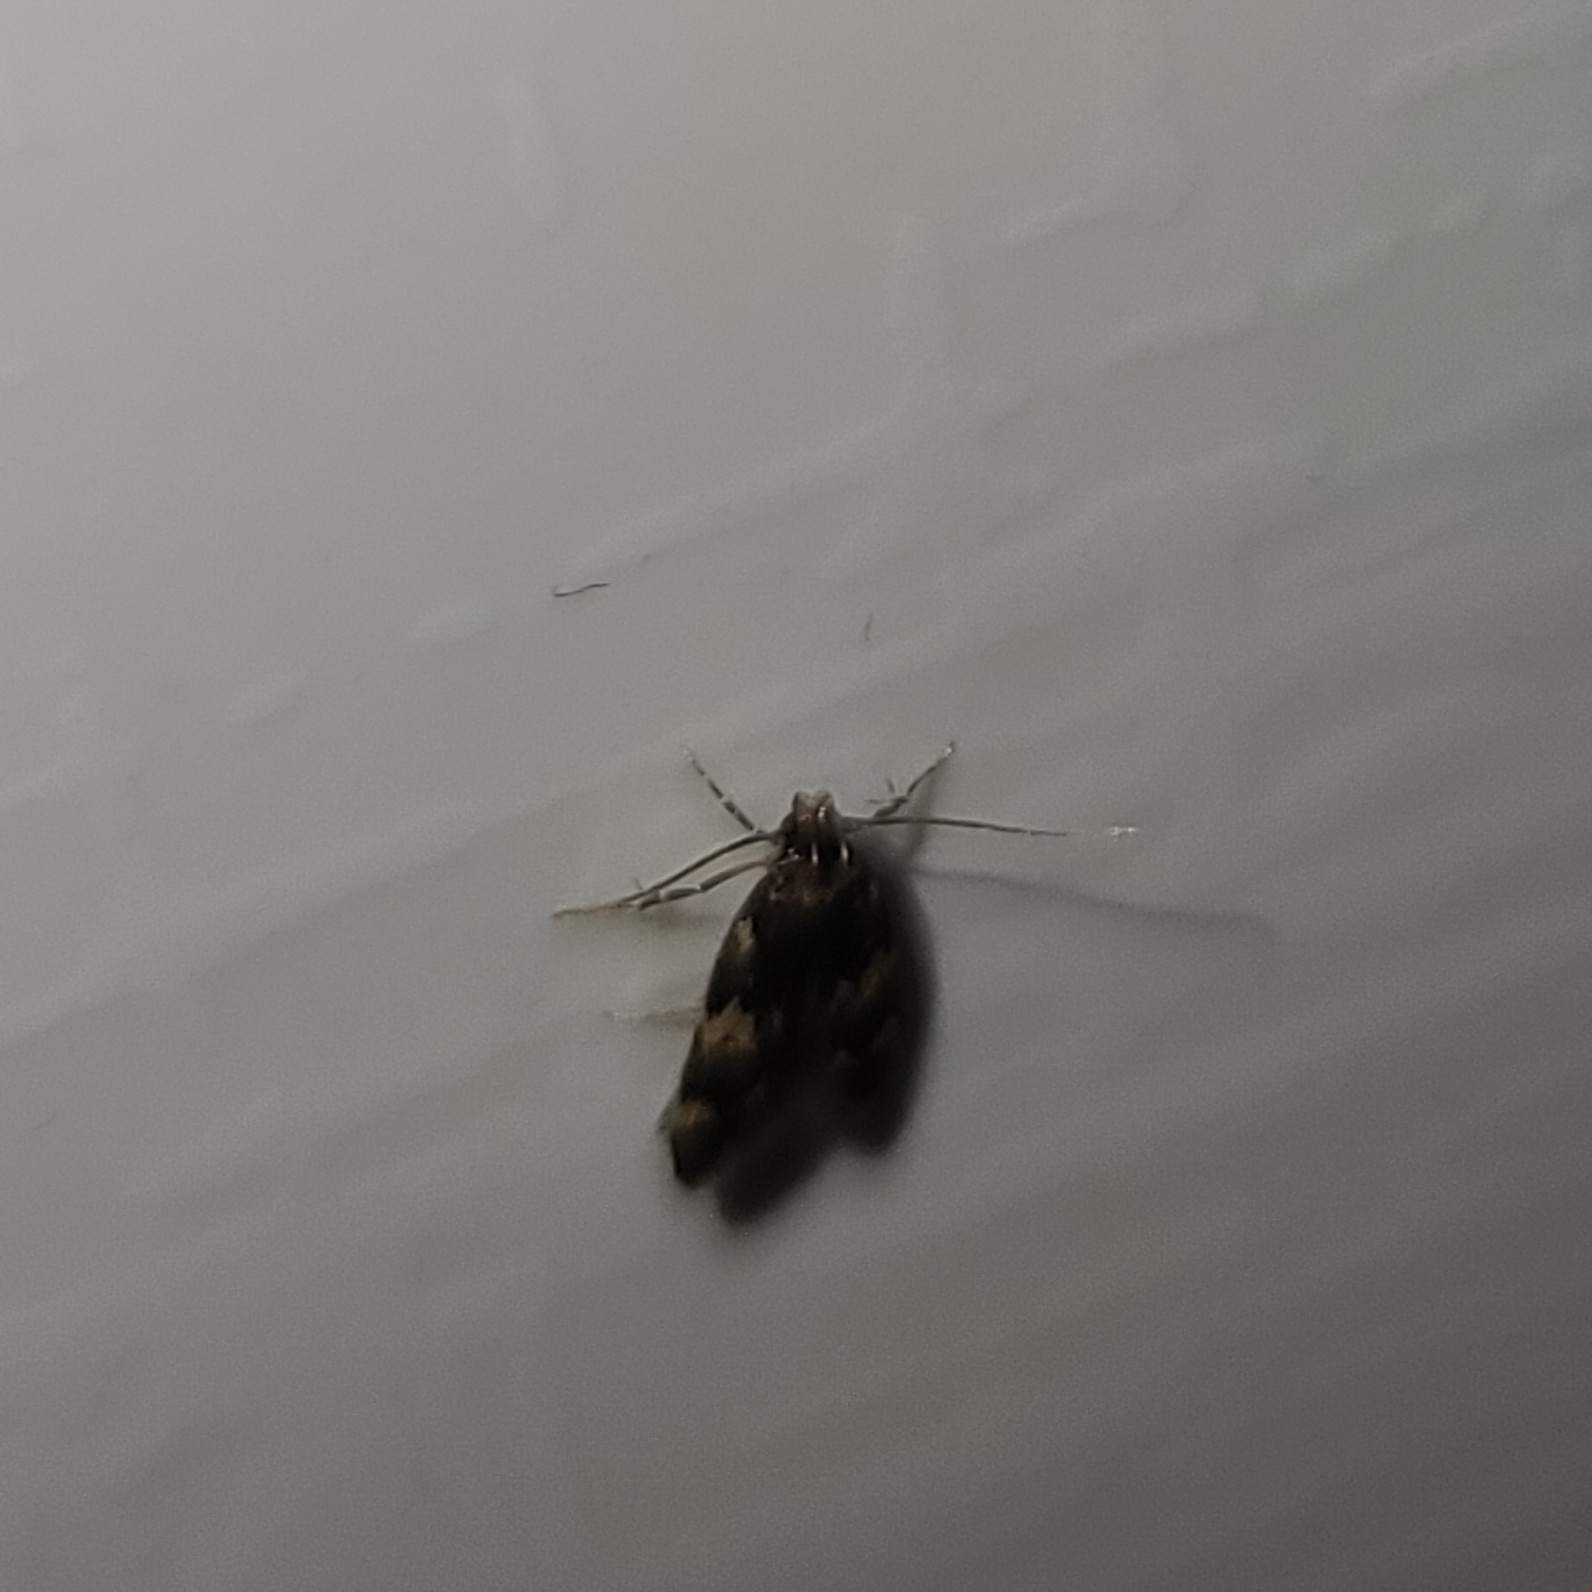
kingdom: Animalia
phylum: Arthropoda
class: Insecta
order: Lepidoptera
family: Autostichidae
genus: Oegoconia
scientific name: Oegoconia quadripuncta
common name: Four-spotted obscure
